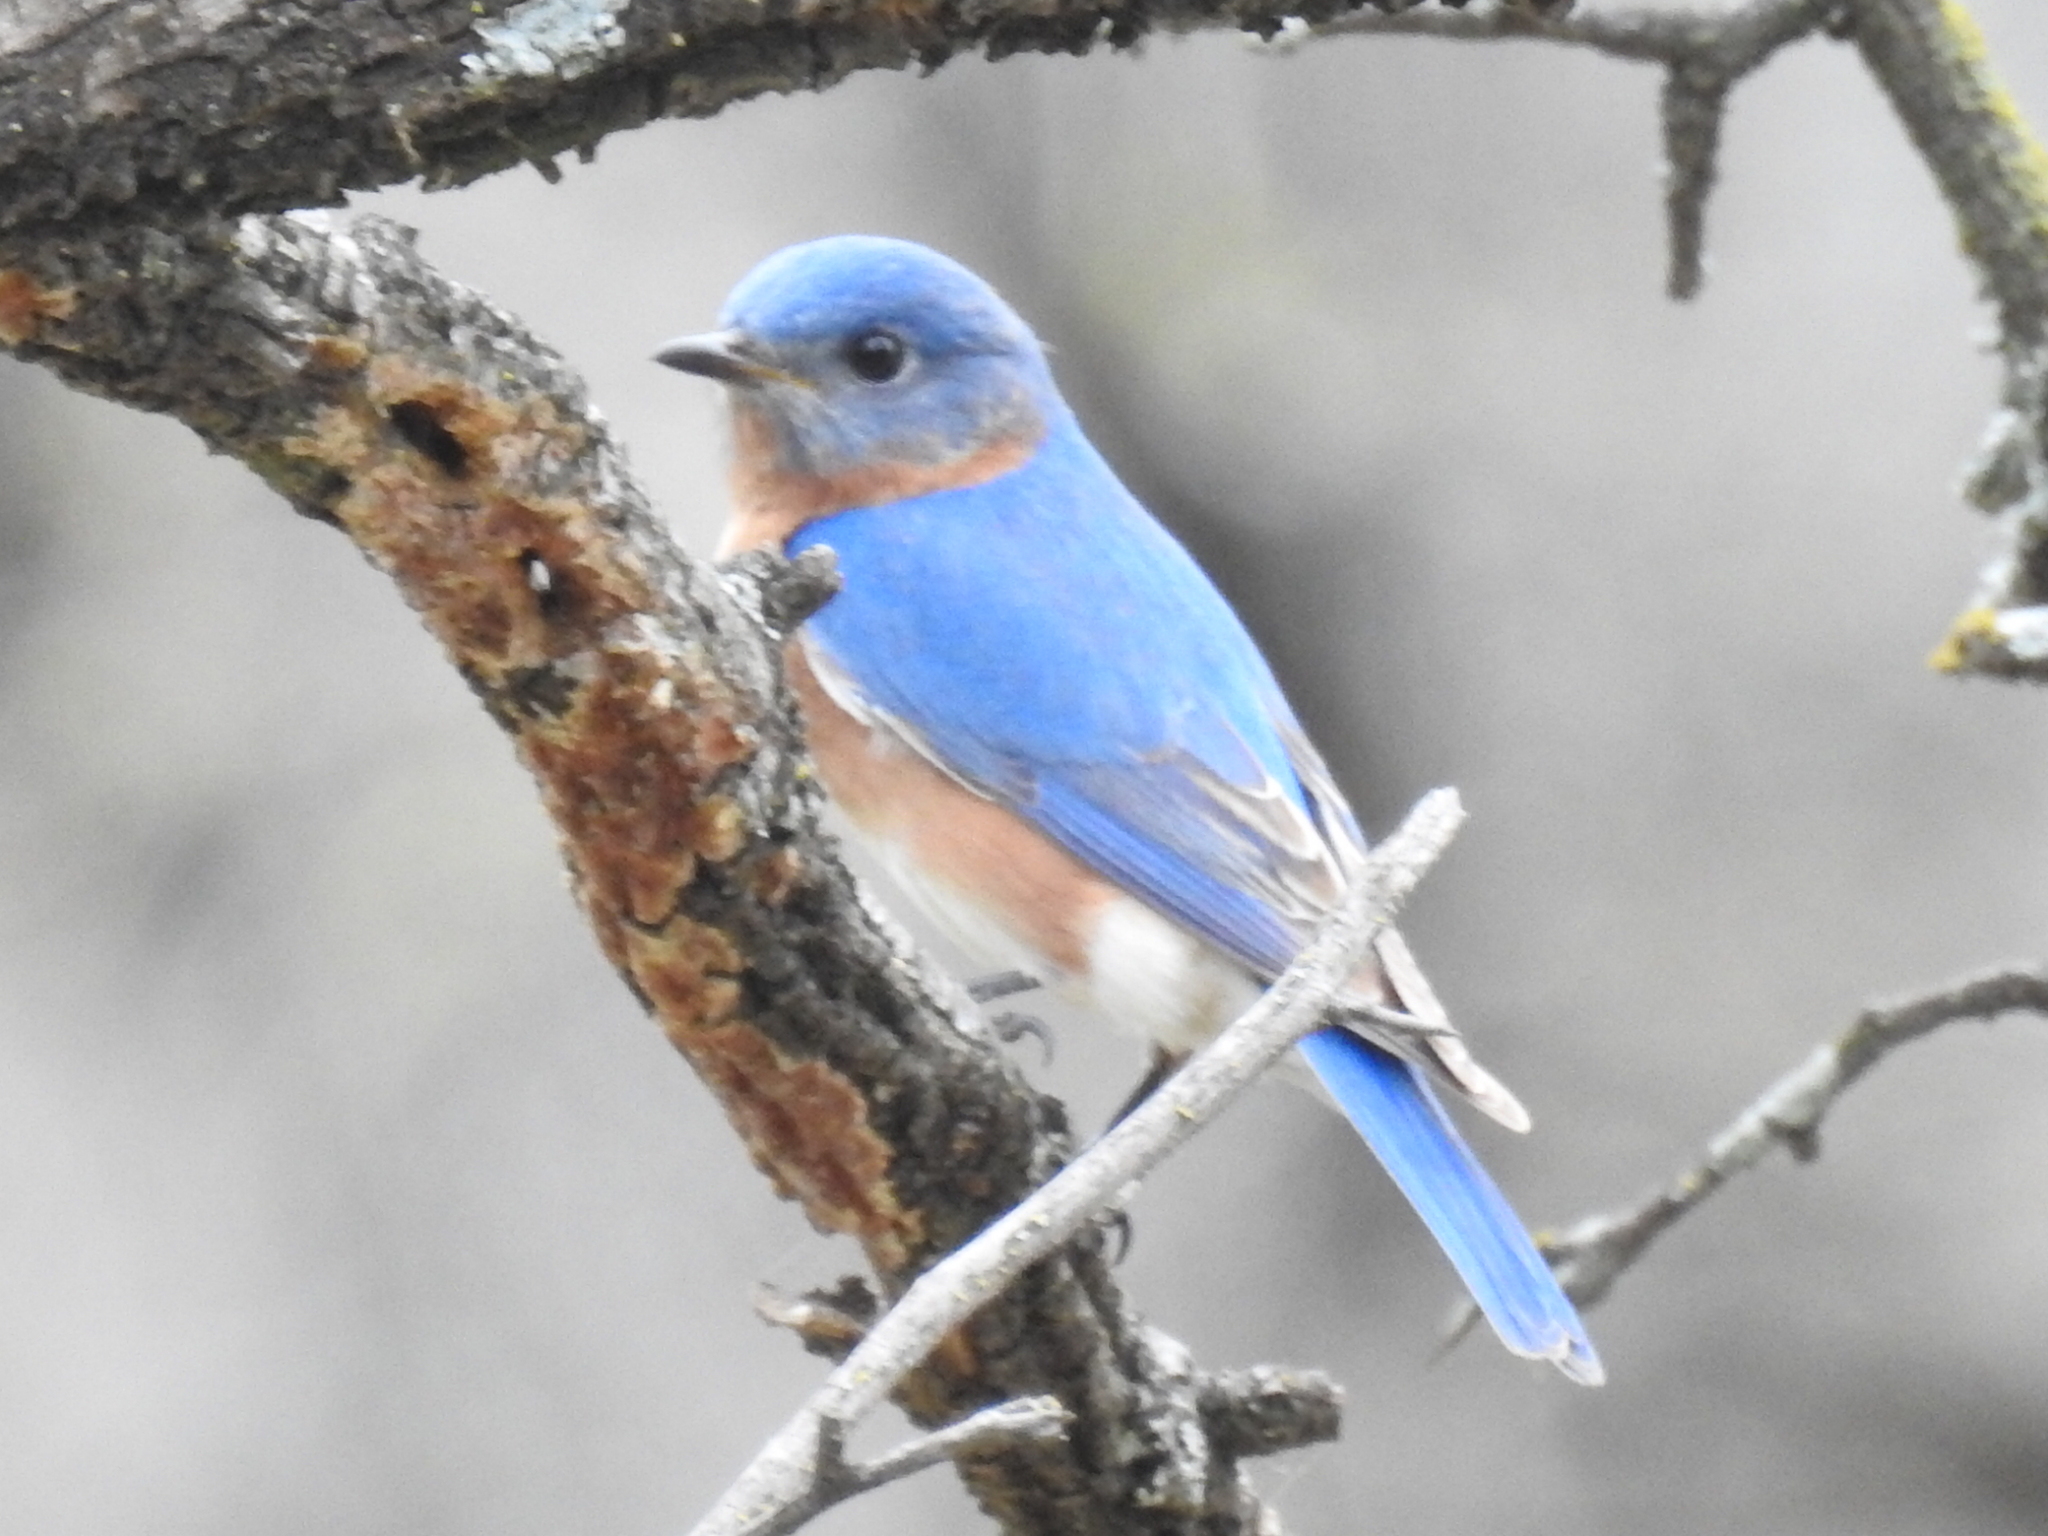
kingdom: Animalia
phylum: Chordata
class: Aves
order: Passeriformes
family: Turdidae
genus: Sialia
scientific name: Sialia sialis
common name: Eastern bluebird
